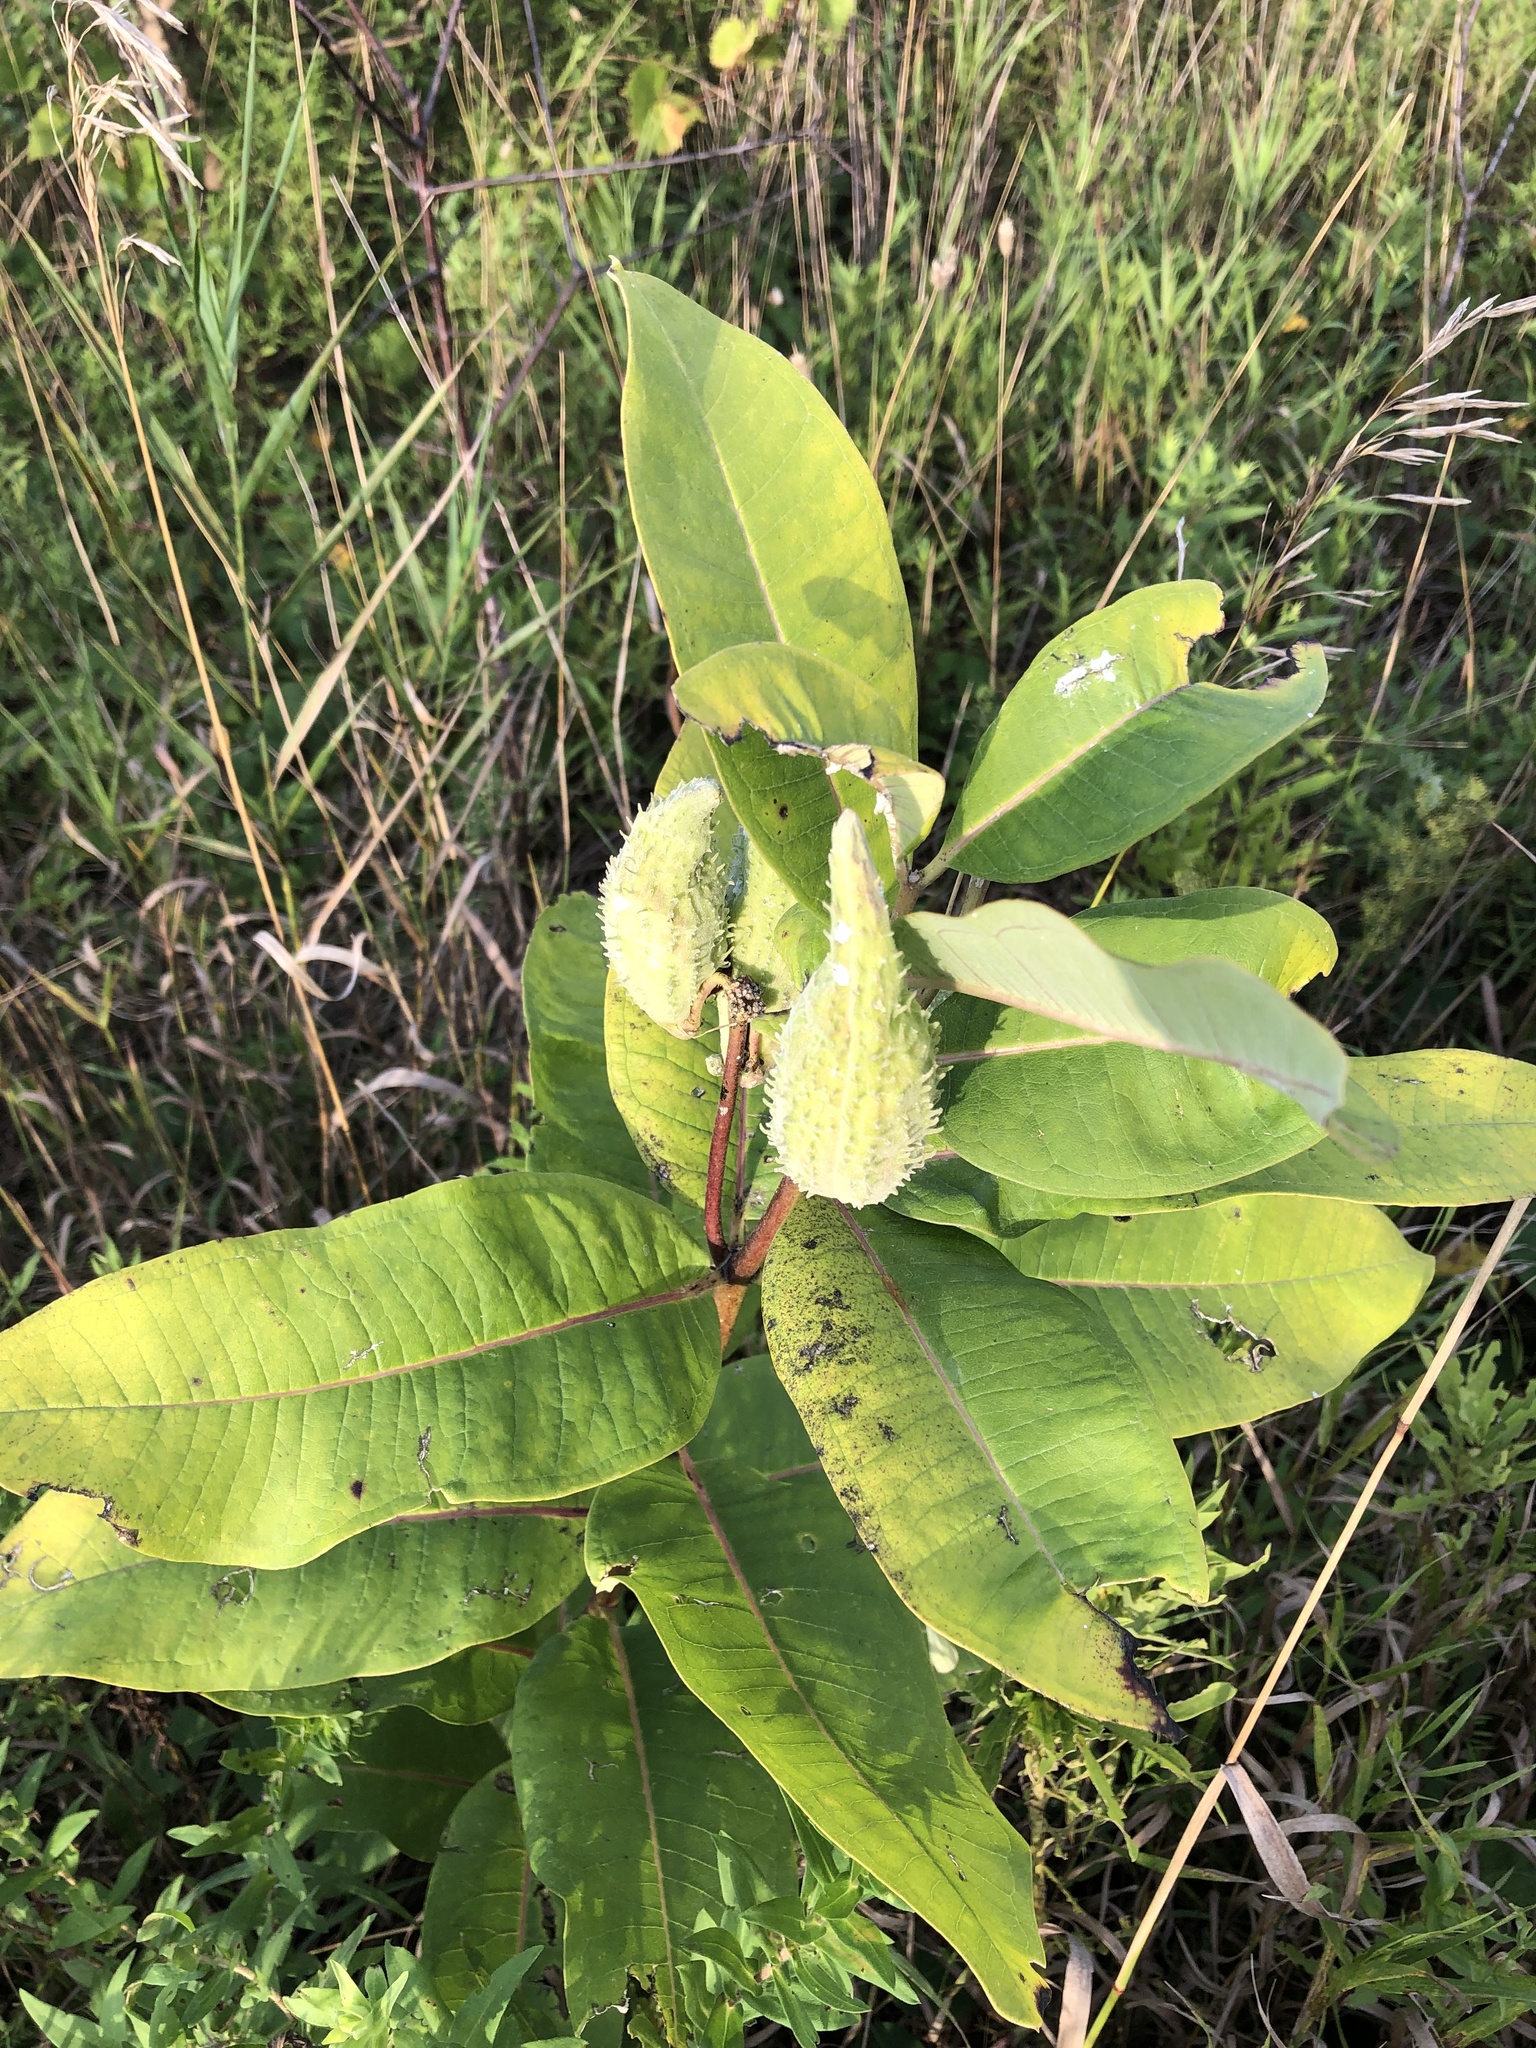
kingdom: Plantae
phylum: Tracheophyta
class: Magnoliopsida
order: Gentianales
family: Apocynaceae
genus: Asclepias
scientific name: Asclepias syriaca
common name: Common milkweed
